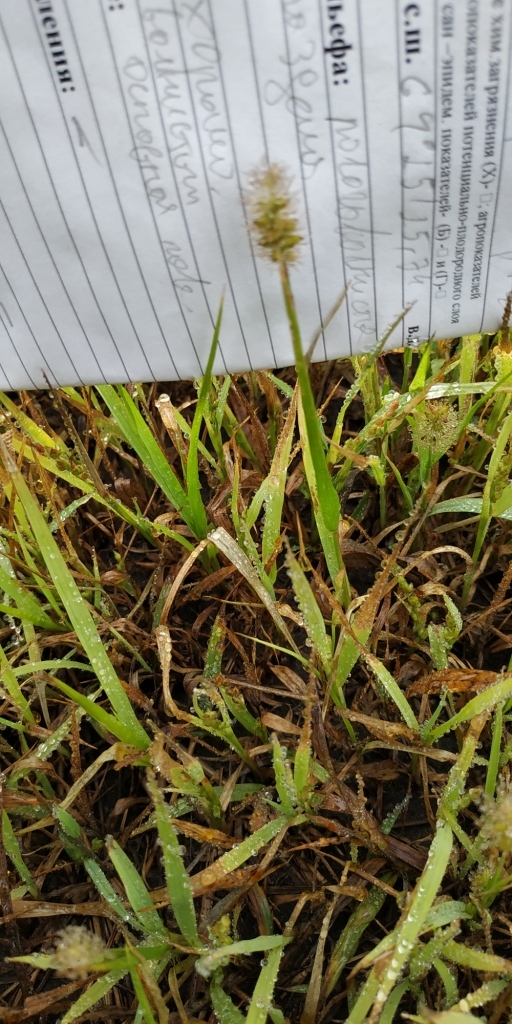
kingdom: Plantae
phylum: Tracheophyta
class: Liliopsida
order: Poales
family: Poaceae
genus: Setaria
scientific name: Setaria pumila
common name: Yellow bristle-grass
